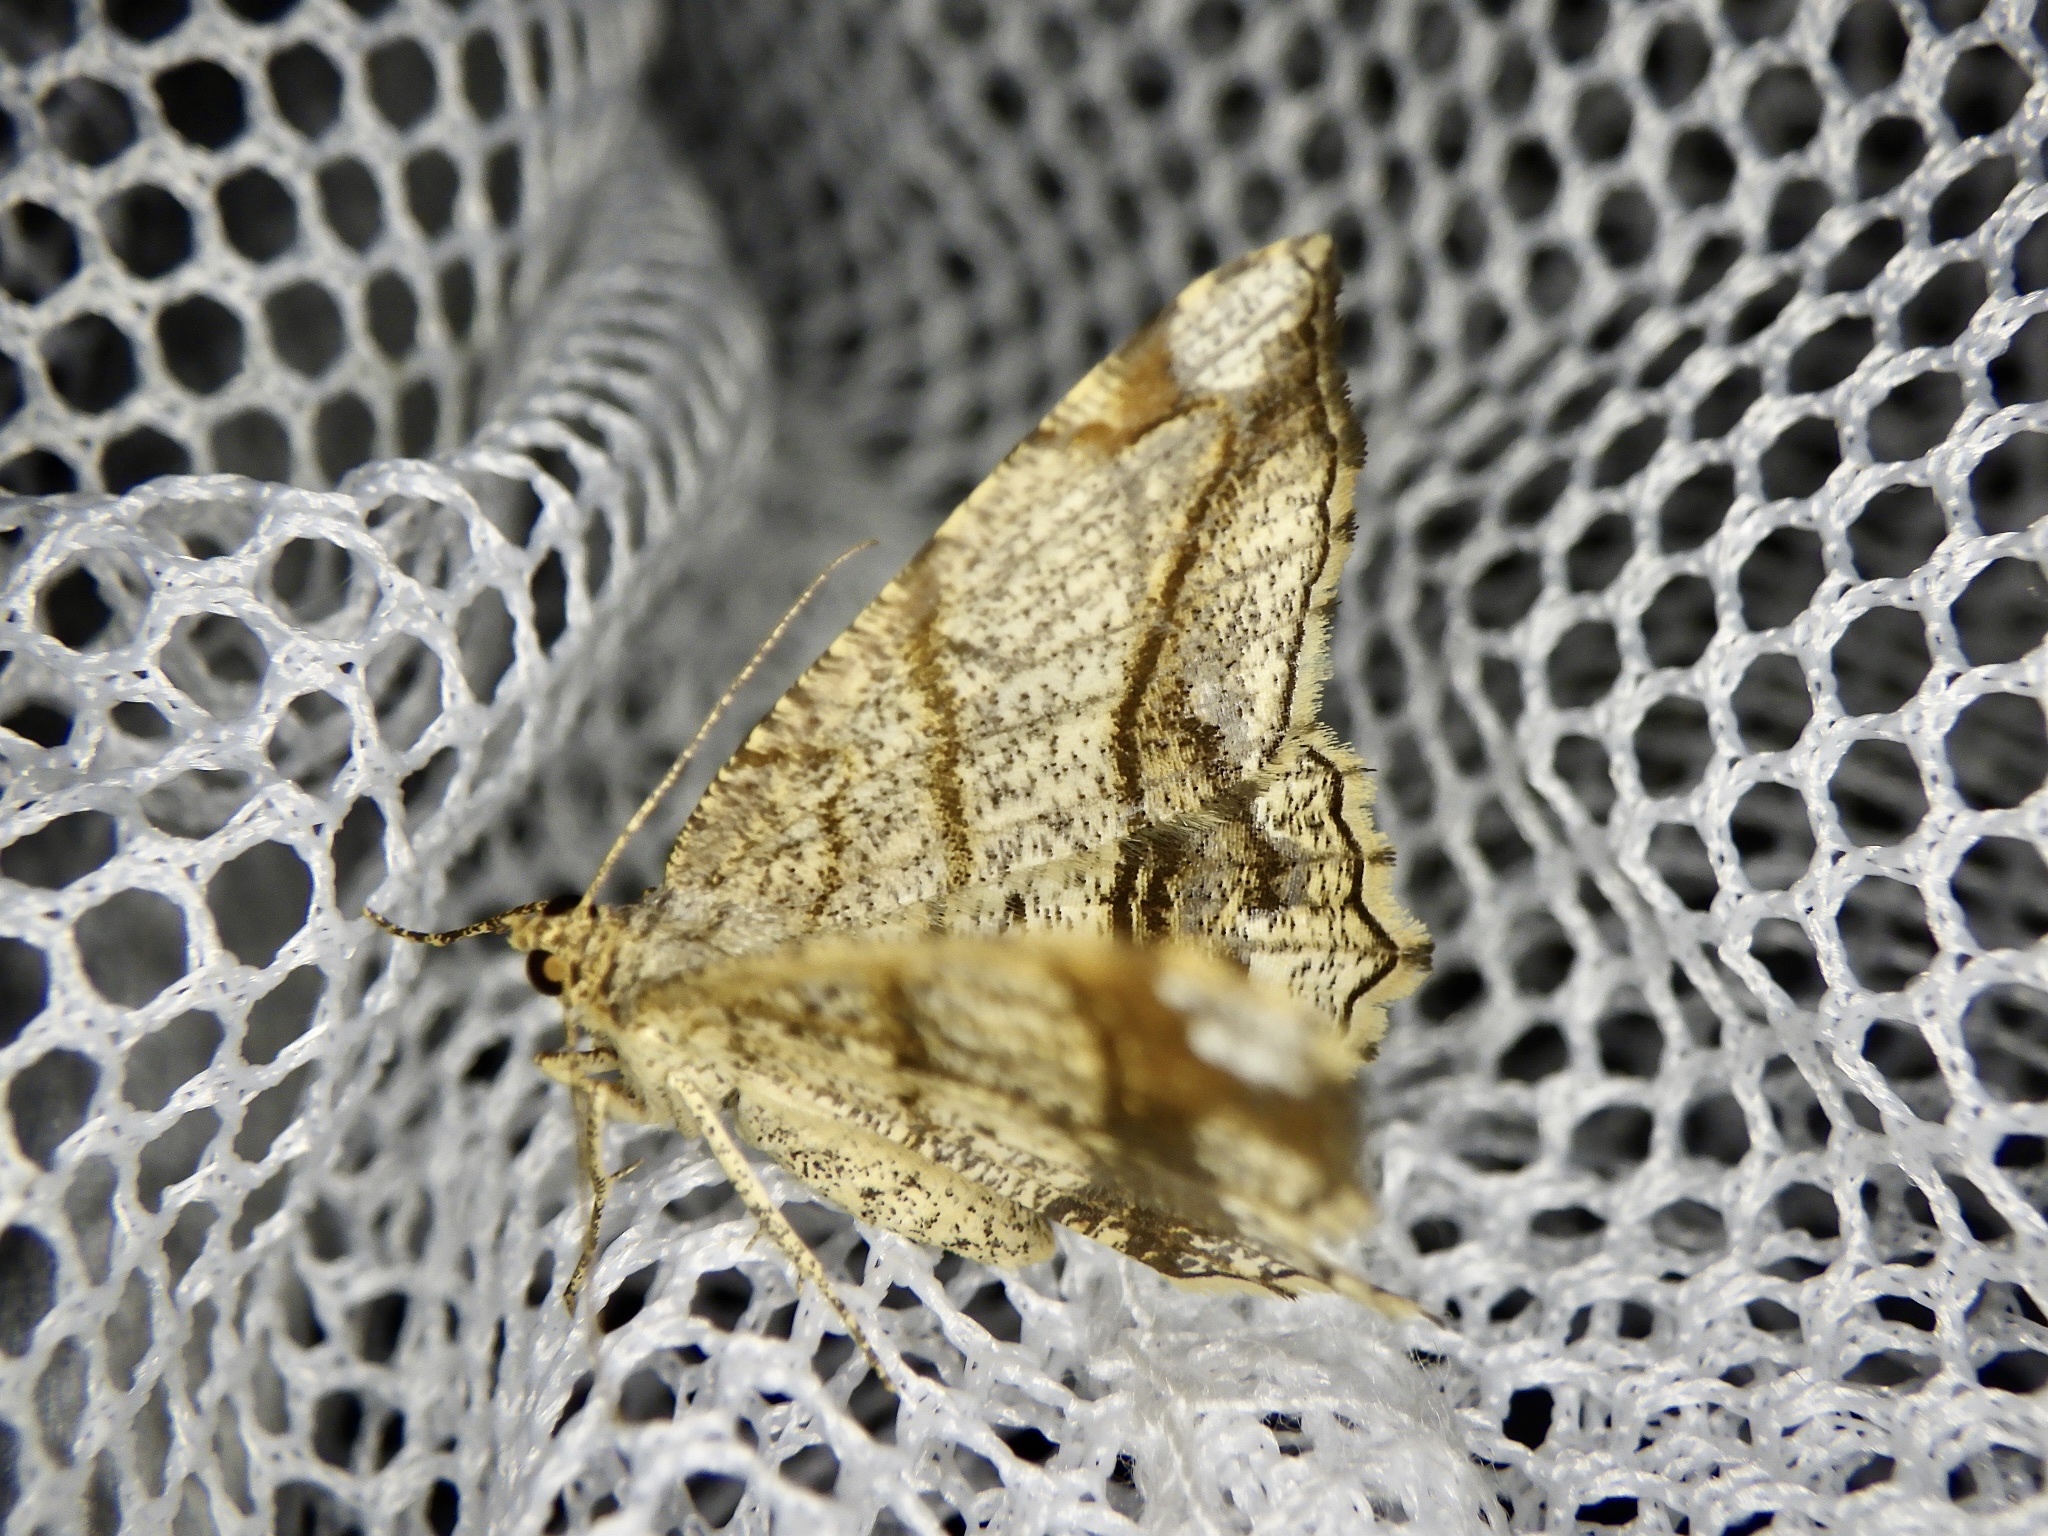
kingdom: Animalia
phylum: Arthropoda
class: Insecta
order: Lepidoptera
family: Geometridae
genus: Chiasmia
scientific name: Chiasmia defixaria
